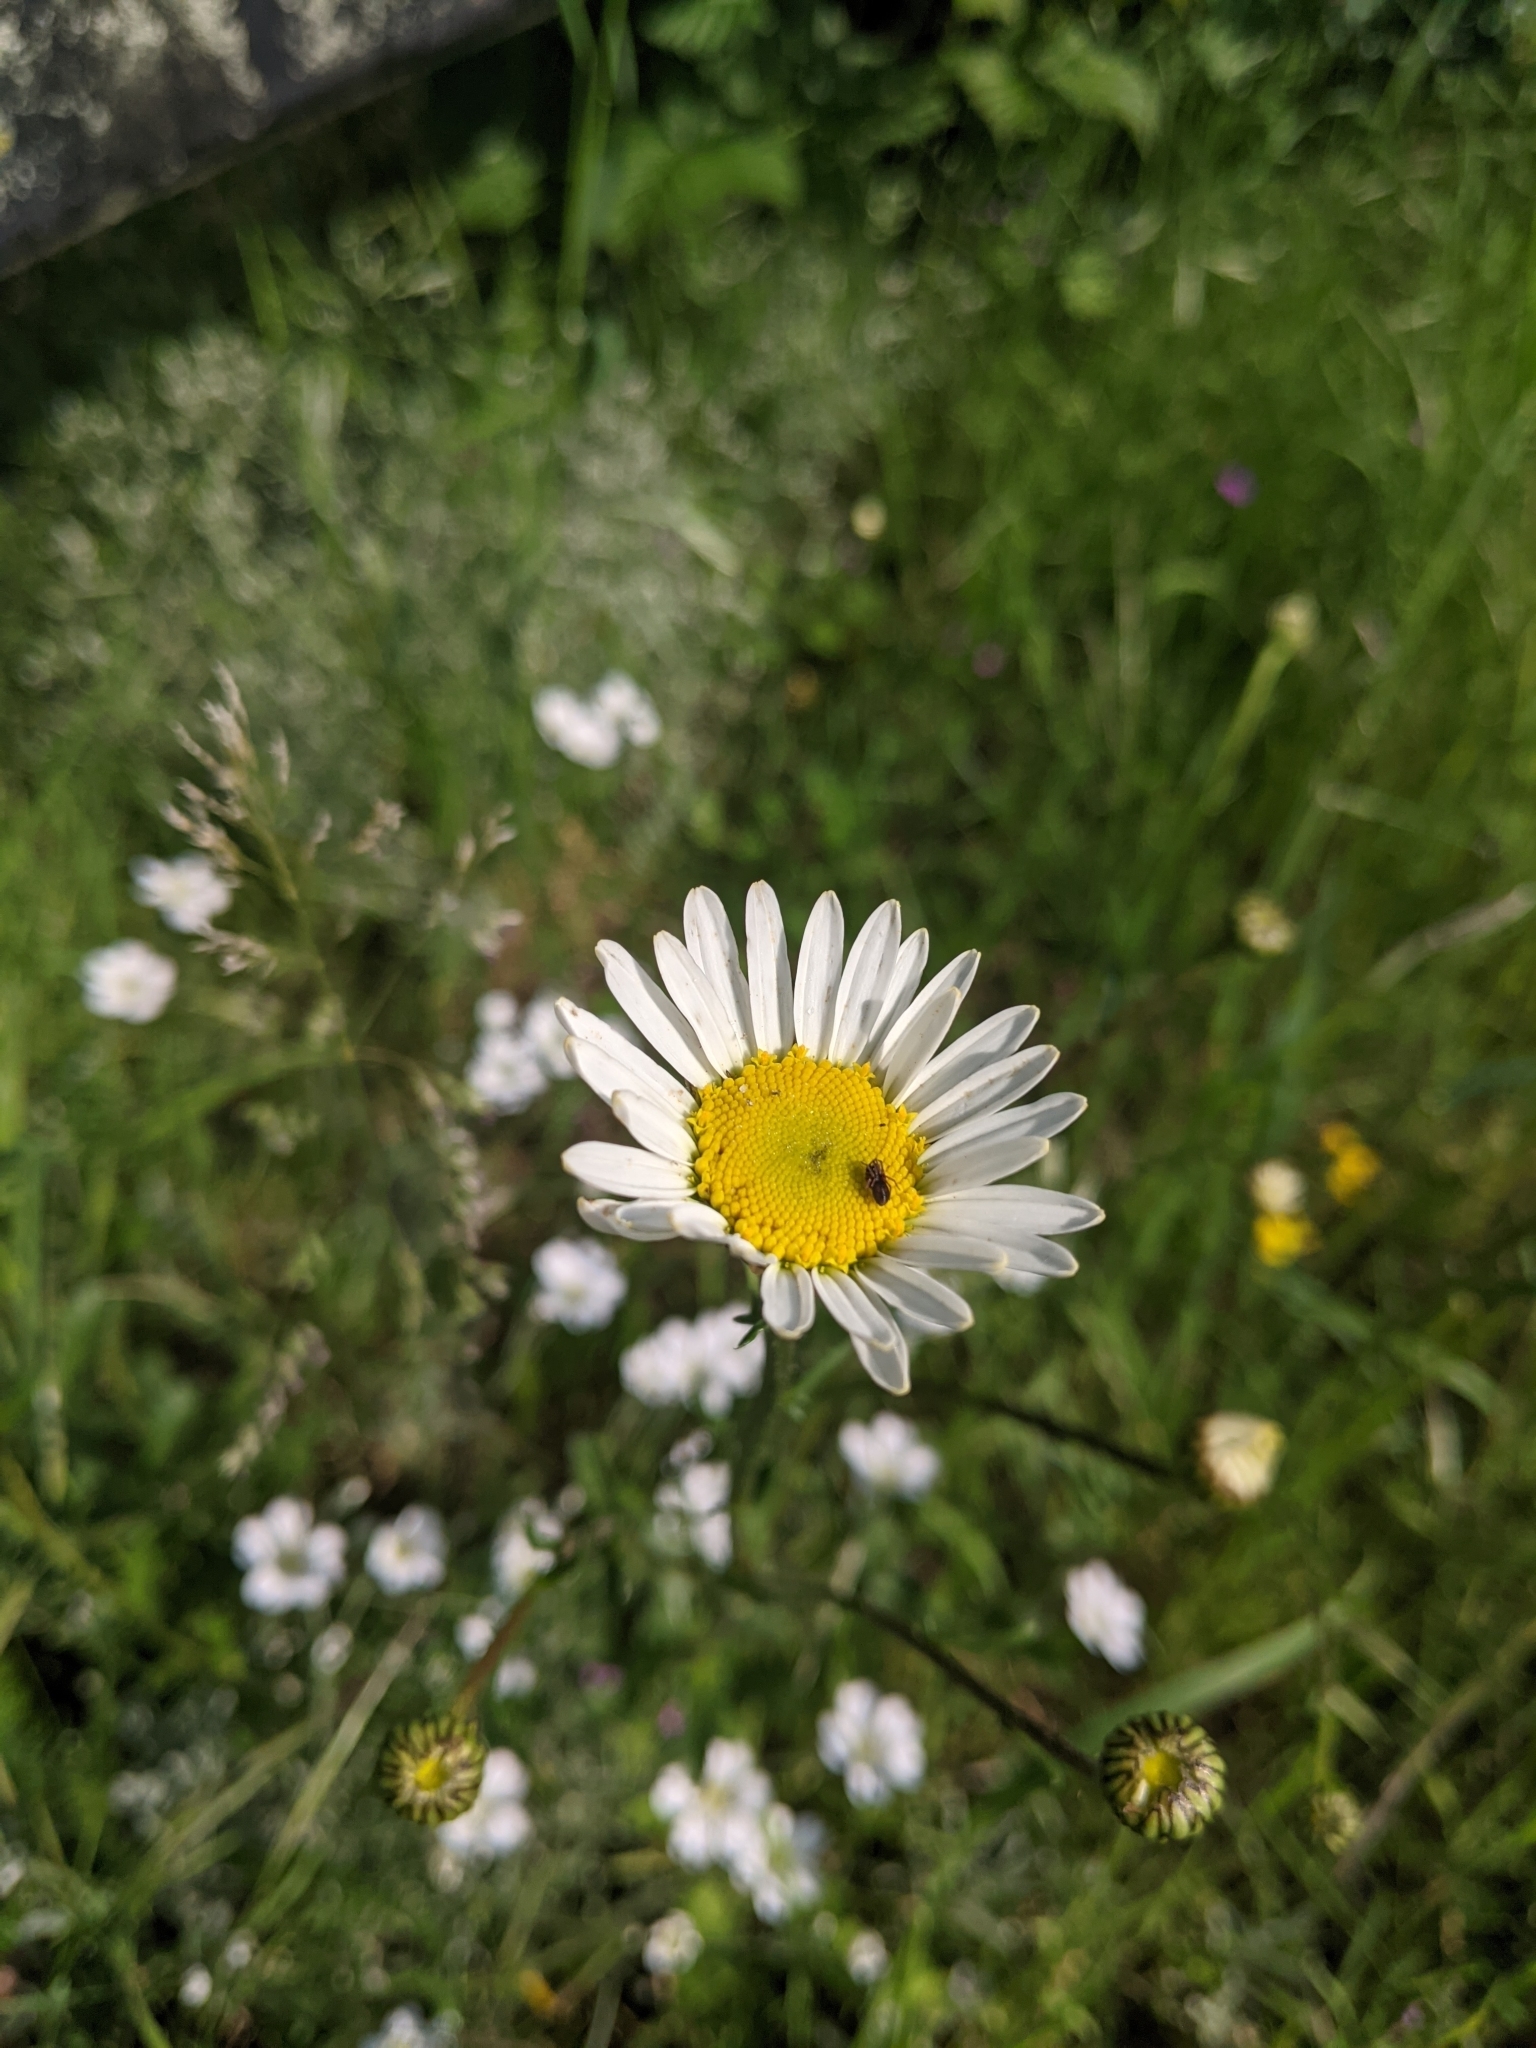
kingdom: Plantae
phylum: Tracheophyta
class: Magnoliopsida
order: Asterales
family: Asteraceae
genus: Leucanthemum
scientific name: Leucanthemum vulgare
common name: Oxeye daisy
